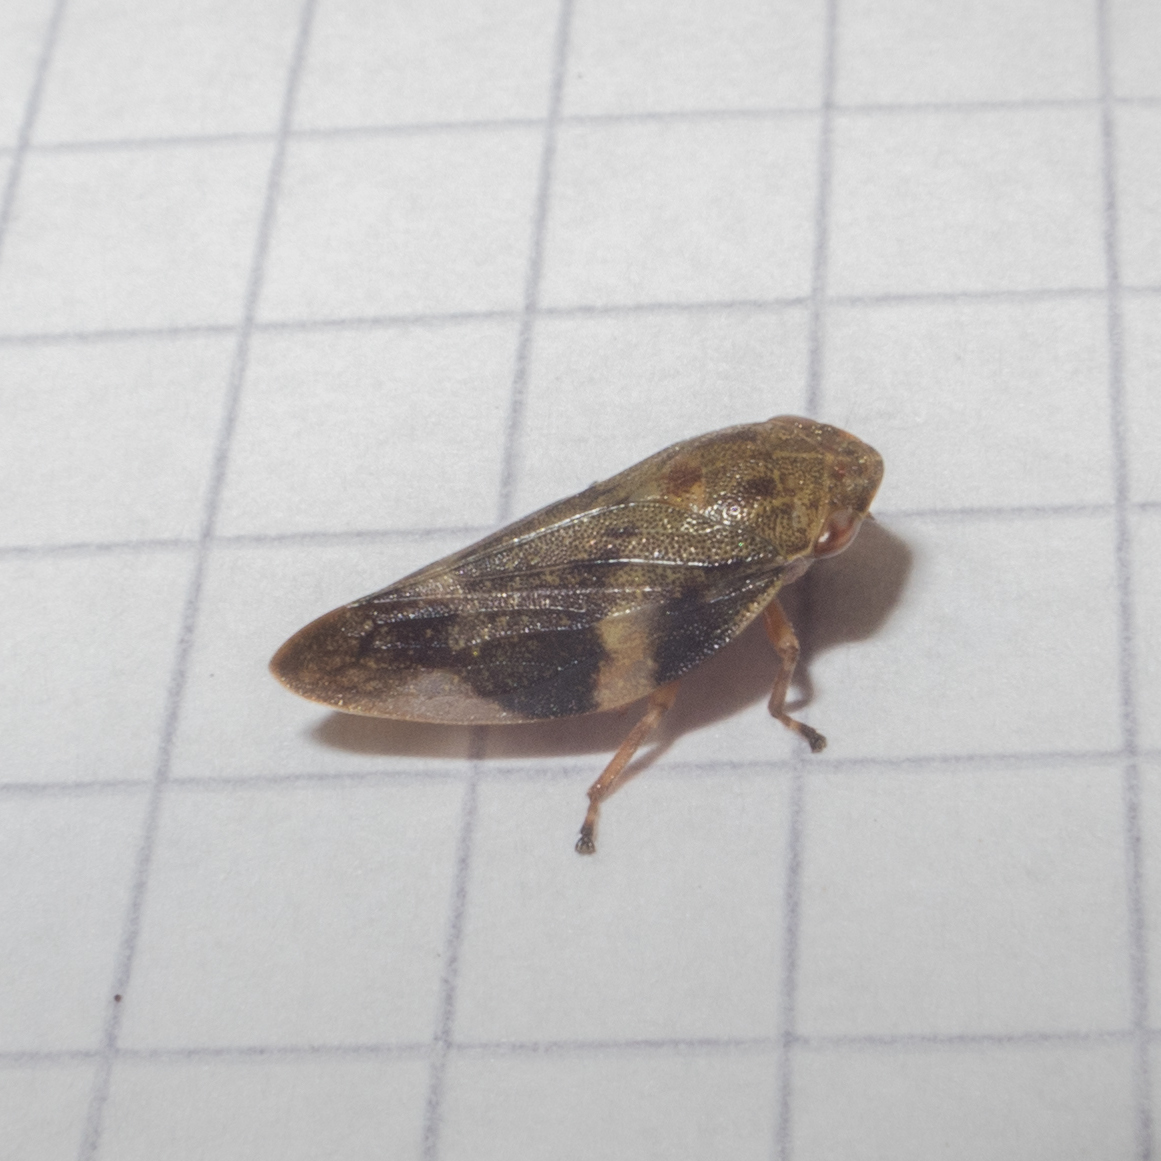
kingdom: Animalia
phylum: Arthropoda
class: Insecta
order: Hemiptera
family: Aphrophoridae
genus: Aphrophora
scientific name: Aphrophora alni
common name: European alder spittlebug
